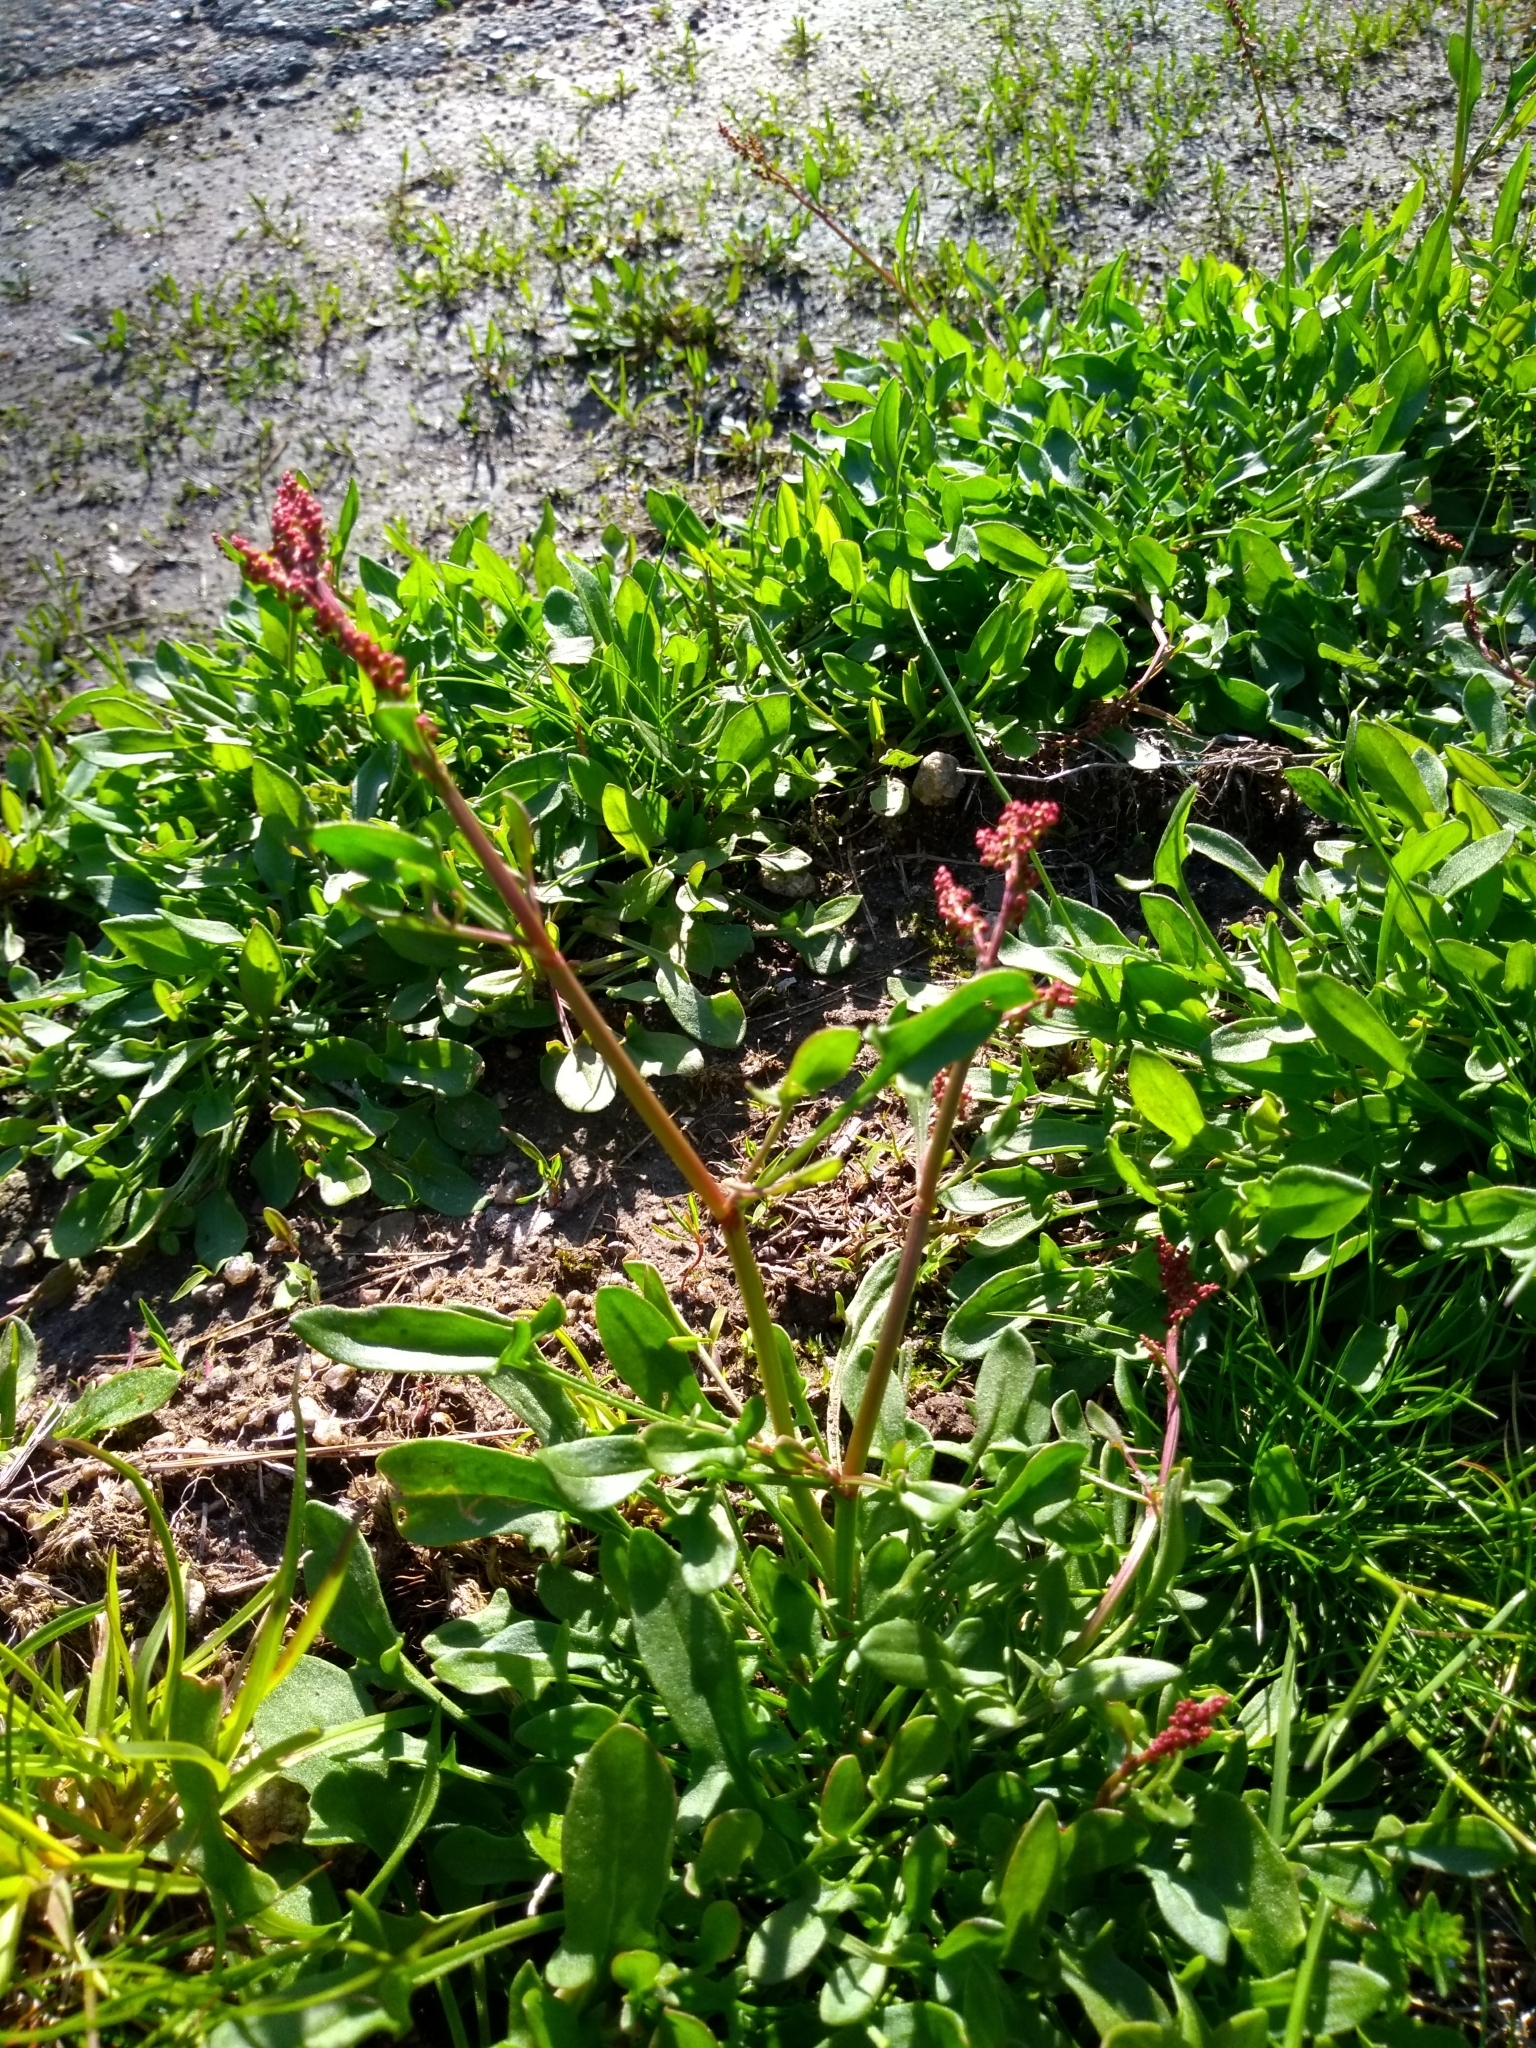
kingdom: Plantae
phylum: Tracheophyta
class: Magnoliopsida
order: Caryophyllales
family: Polygonaceae
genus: Rumex
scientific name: Rumex acetosella
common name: Common sheep sorrel
